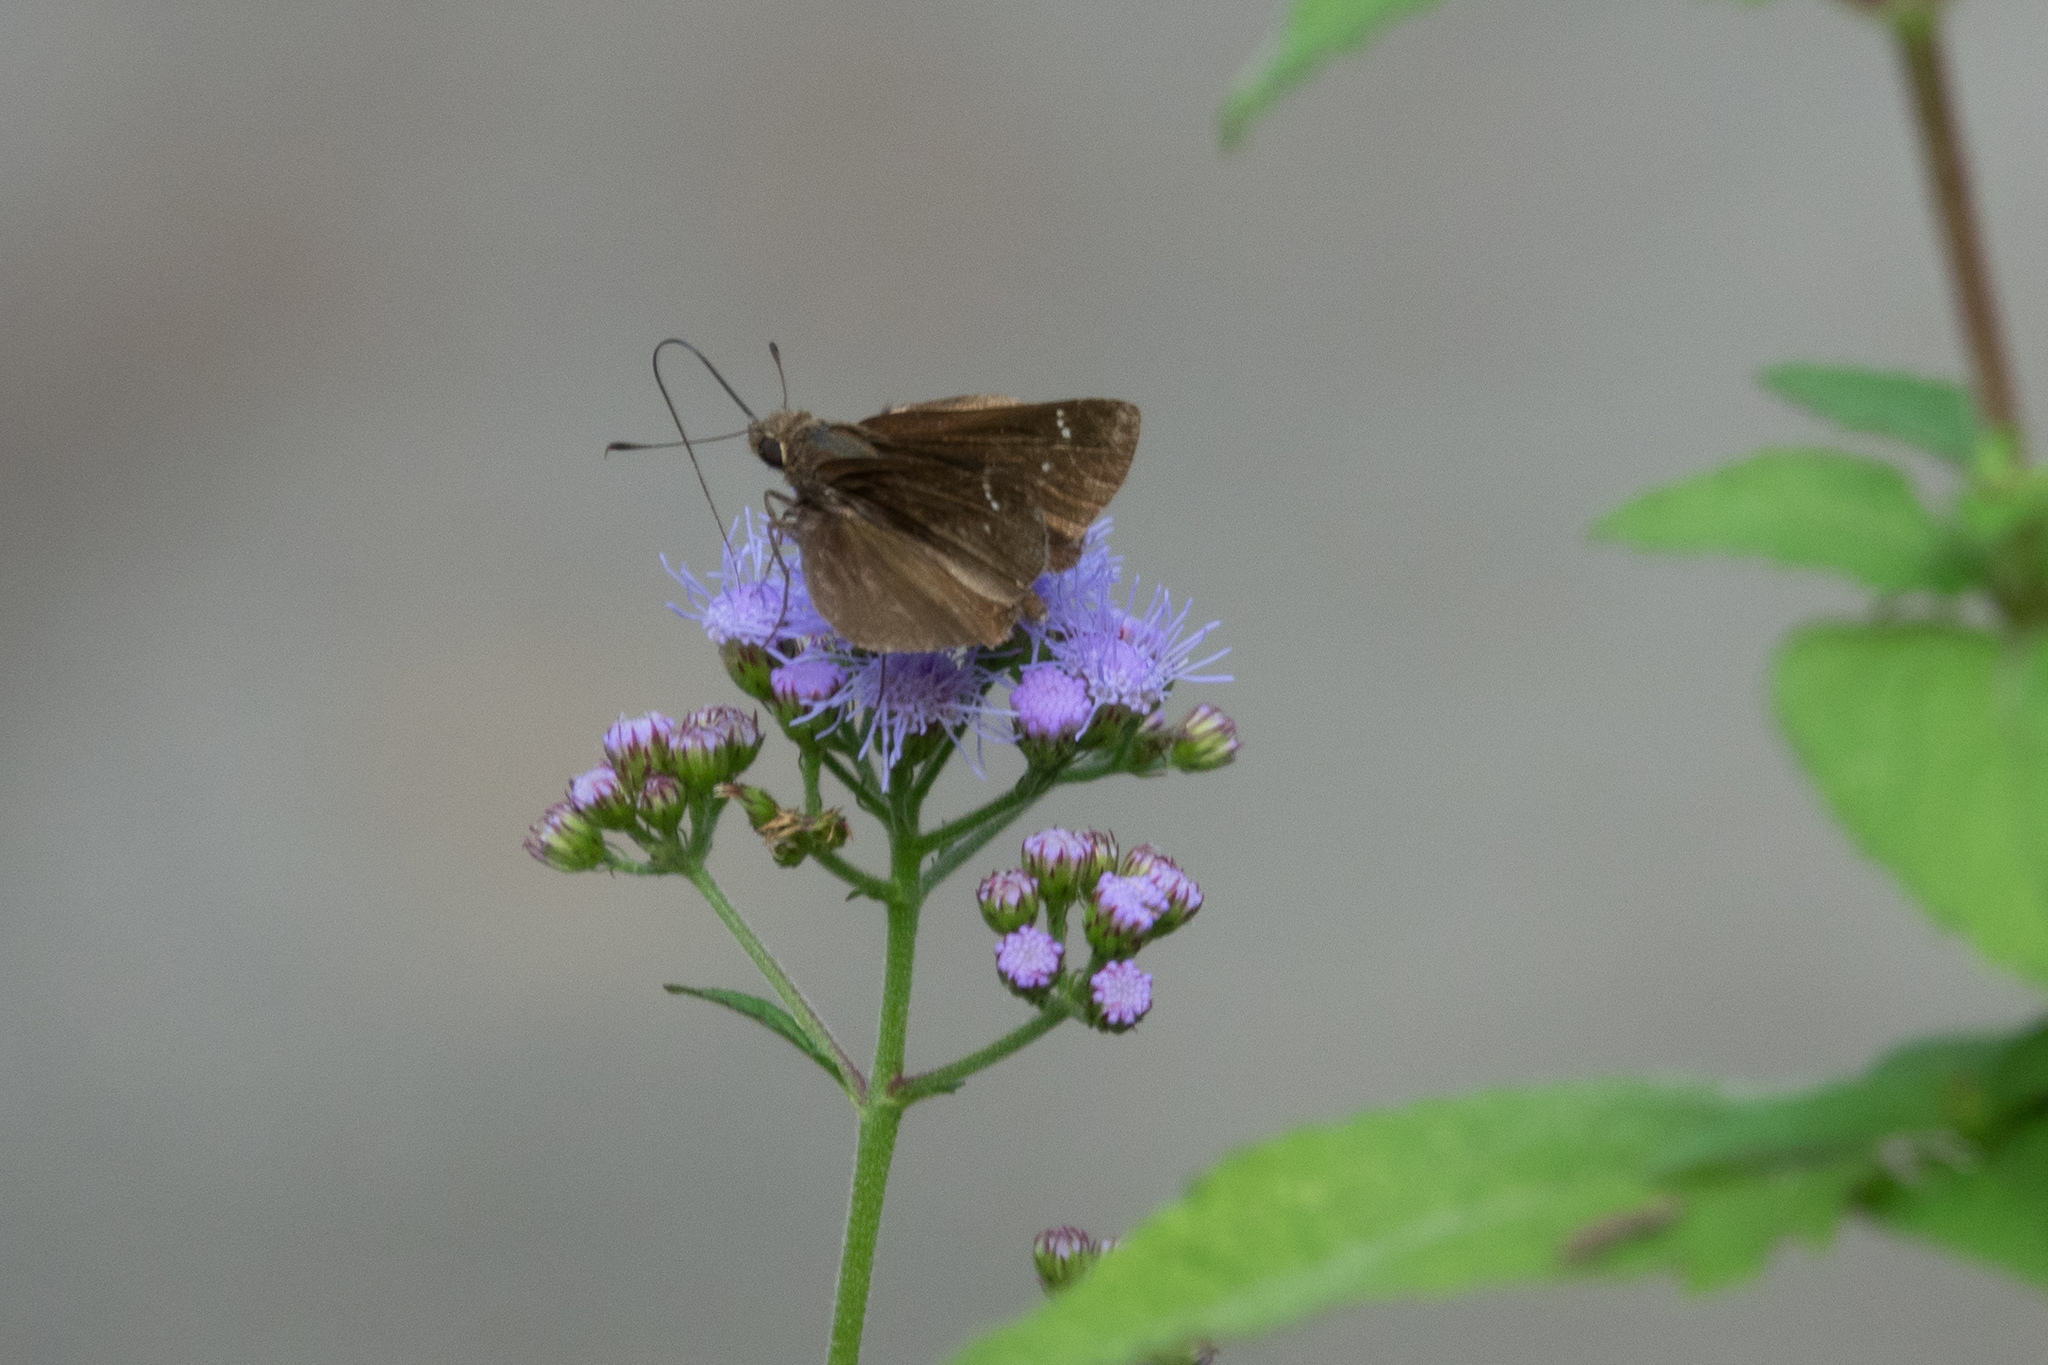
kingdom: Animalia
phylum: Arthropoda
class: Insecta
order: Lepidoptera
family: Hesperiidae
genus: Lerema
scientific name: Lerema accius
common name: Clouded skipper
